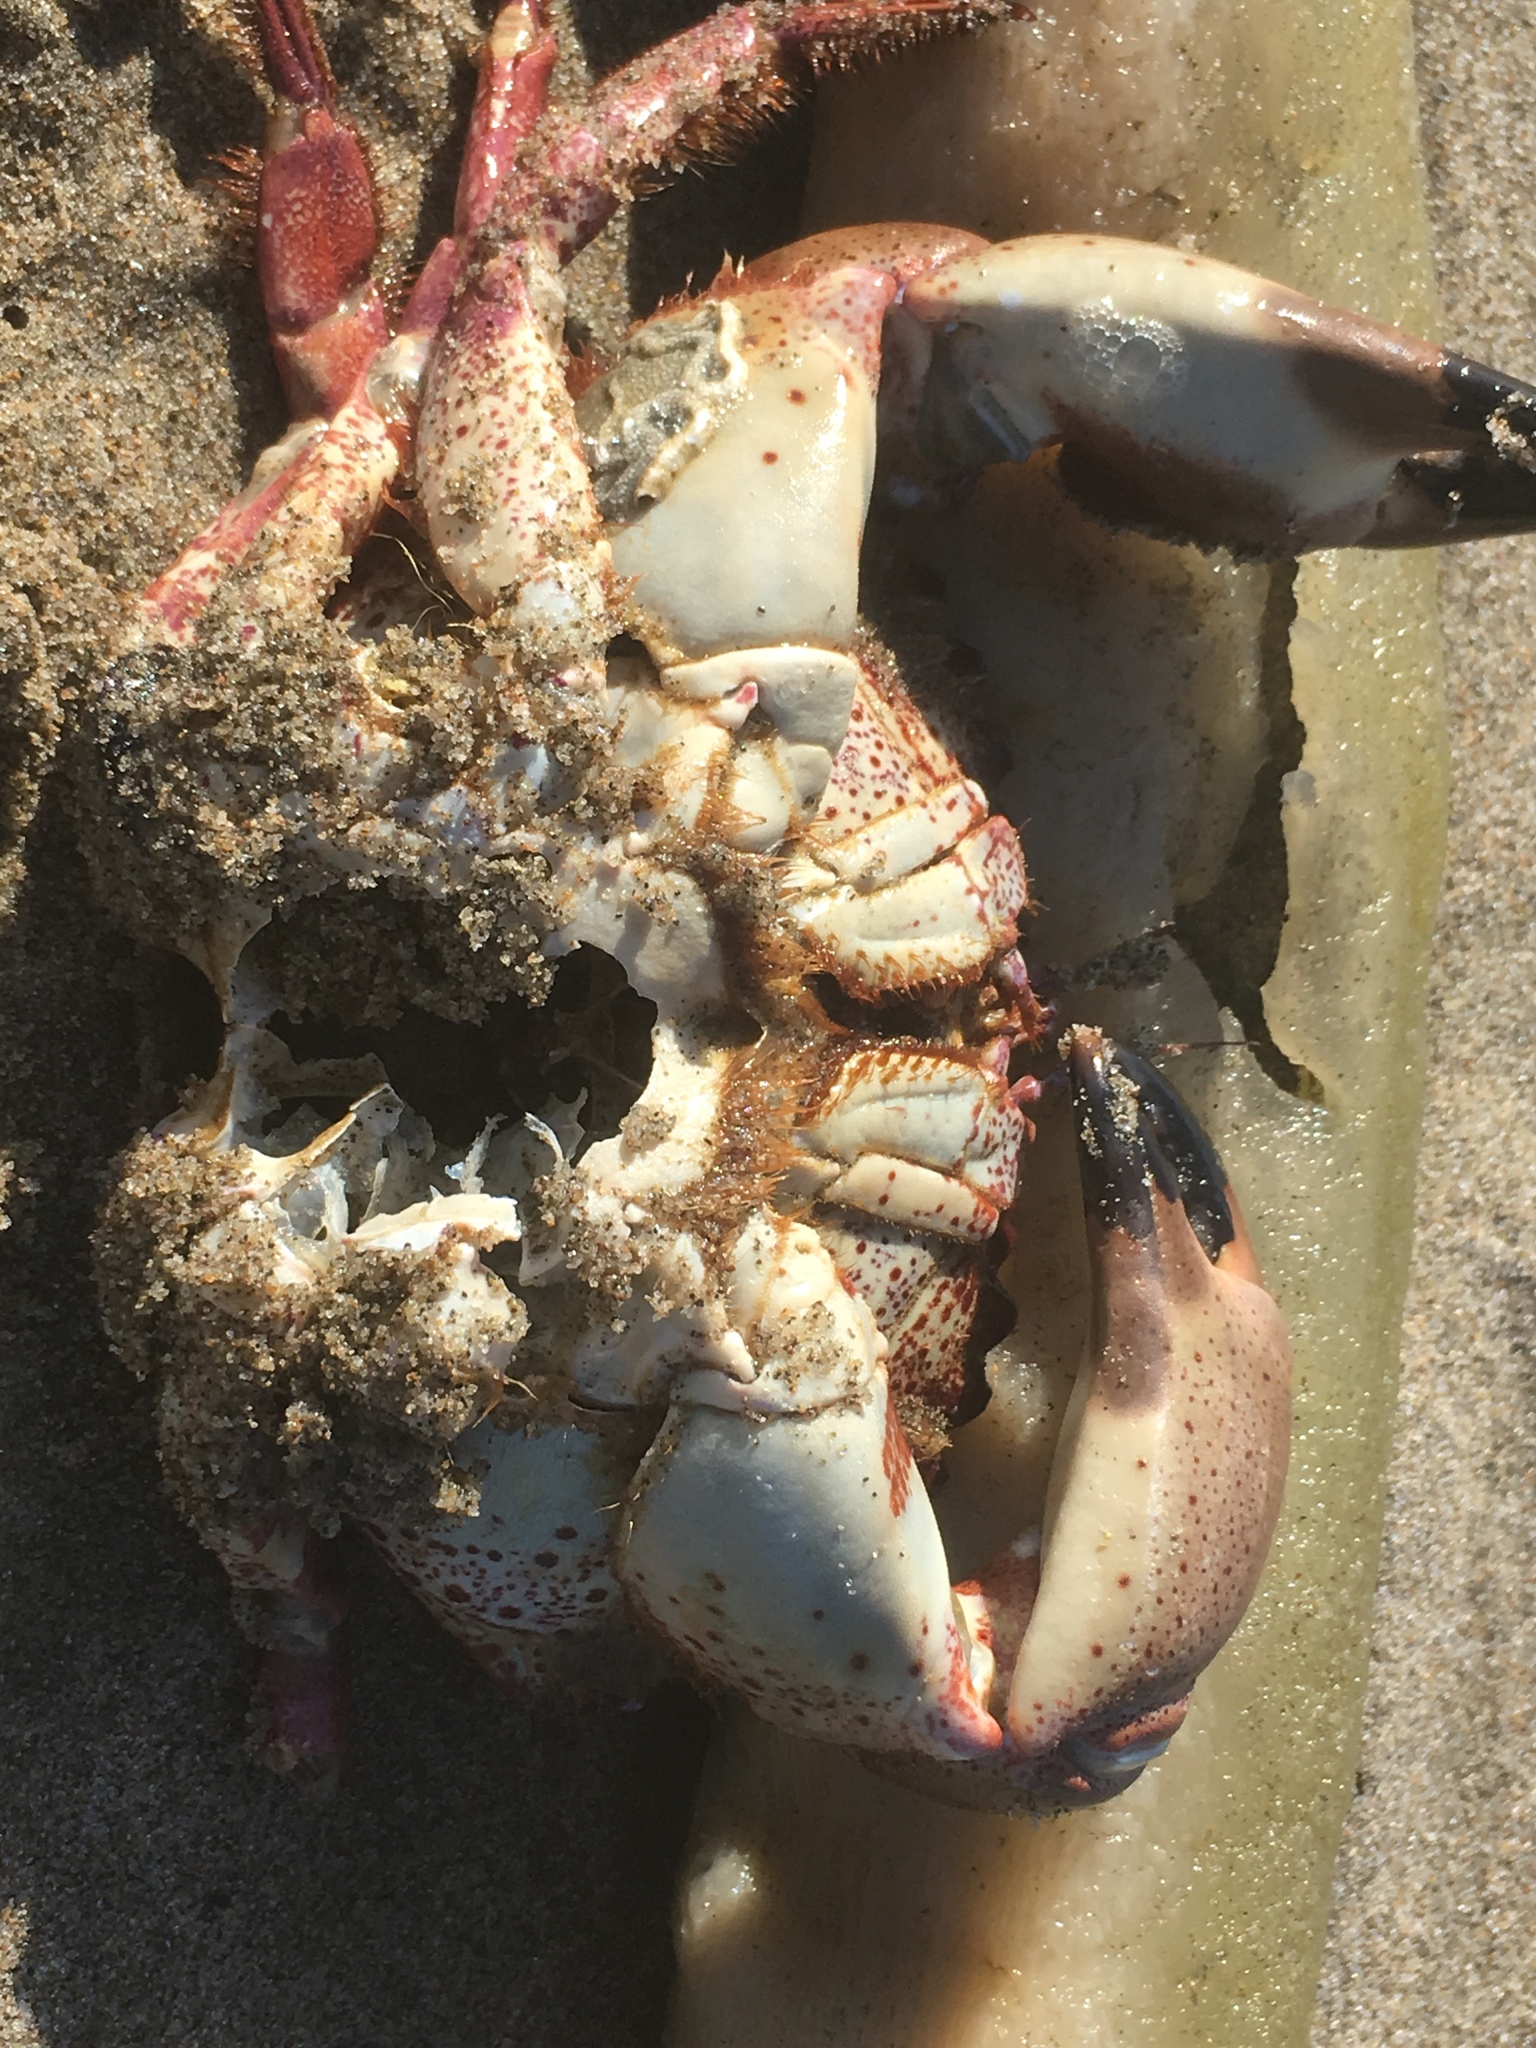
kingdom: Animalia
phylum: Arthropoda
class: Malacostraca
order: Decapoda
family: Cancridae
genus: Romaleon
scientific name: Romaleon antennarium
